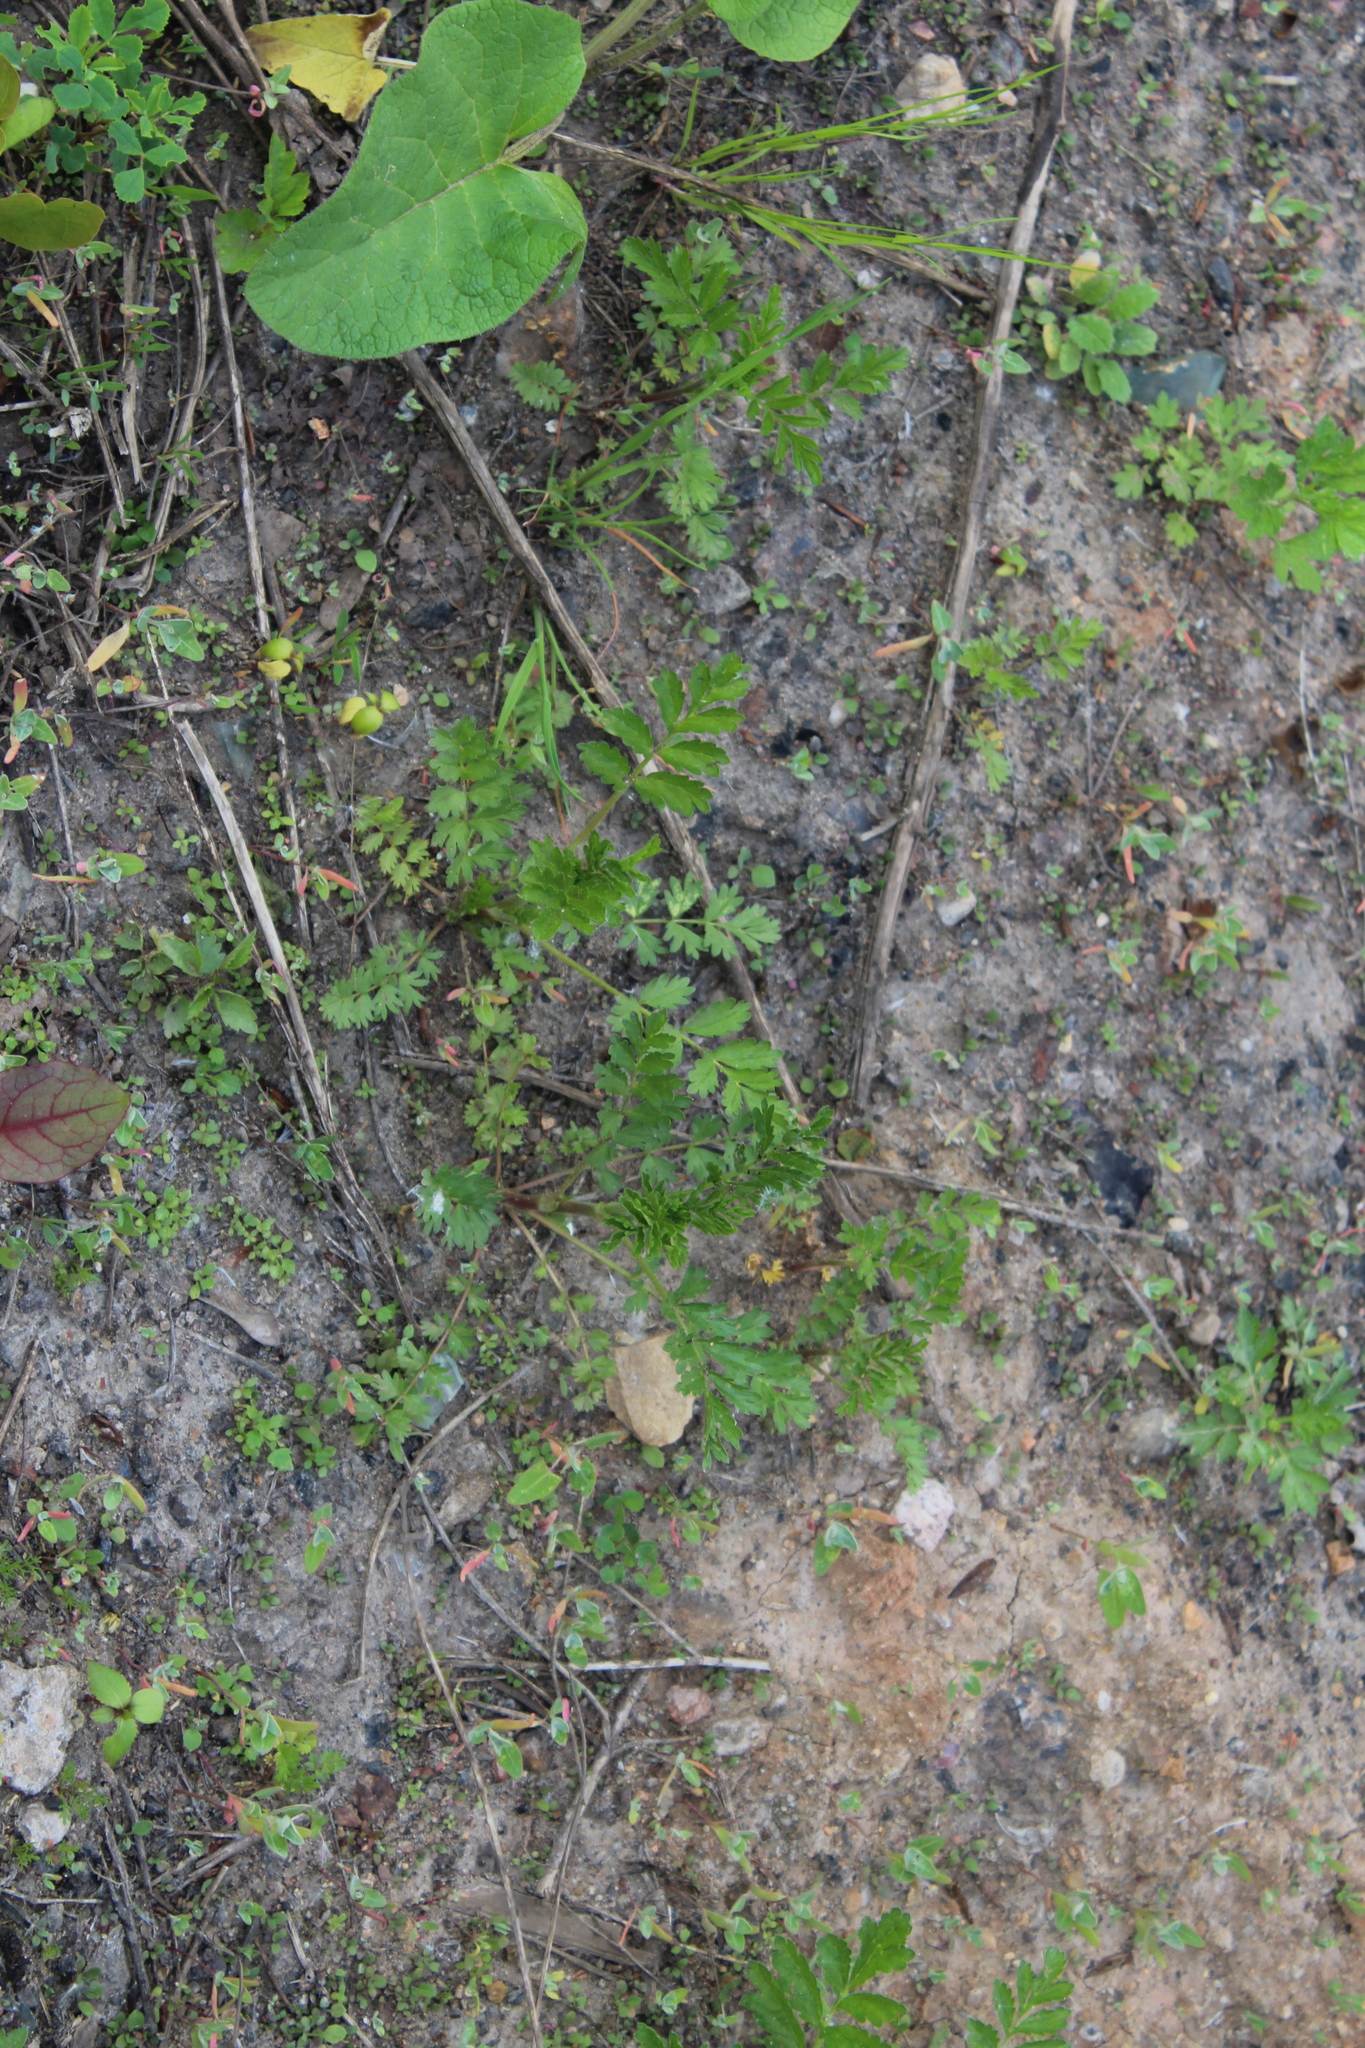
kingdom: Plantae
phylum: Tracheophyta
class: Magnoliopsida
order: Rosales
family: Rosaceae
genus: Potentilla
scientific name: Potentilla supina
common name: Prostrate cinquefoil
